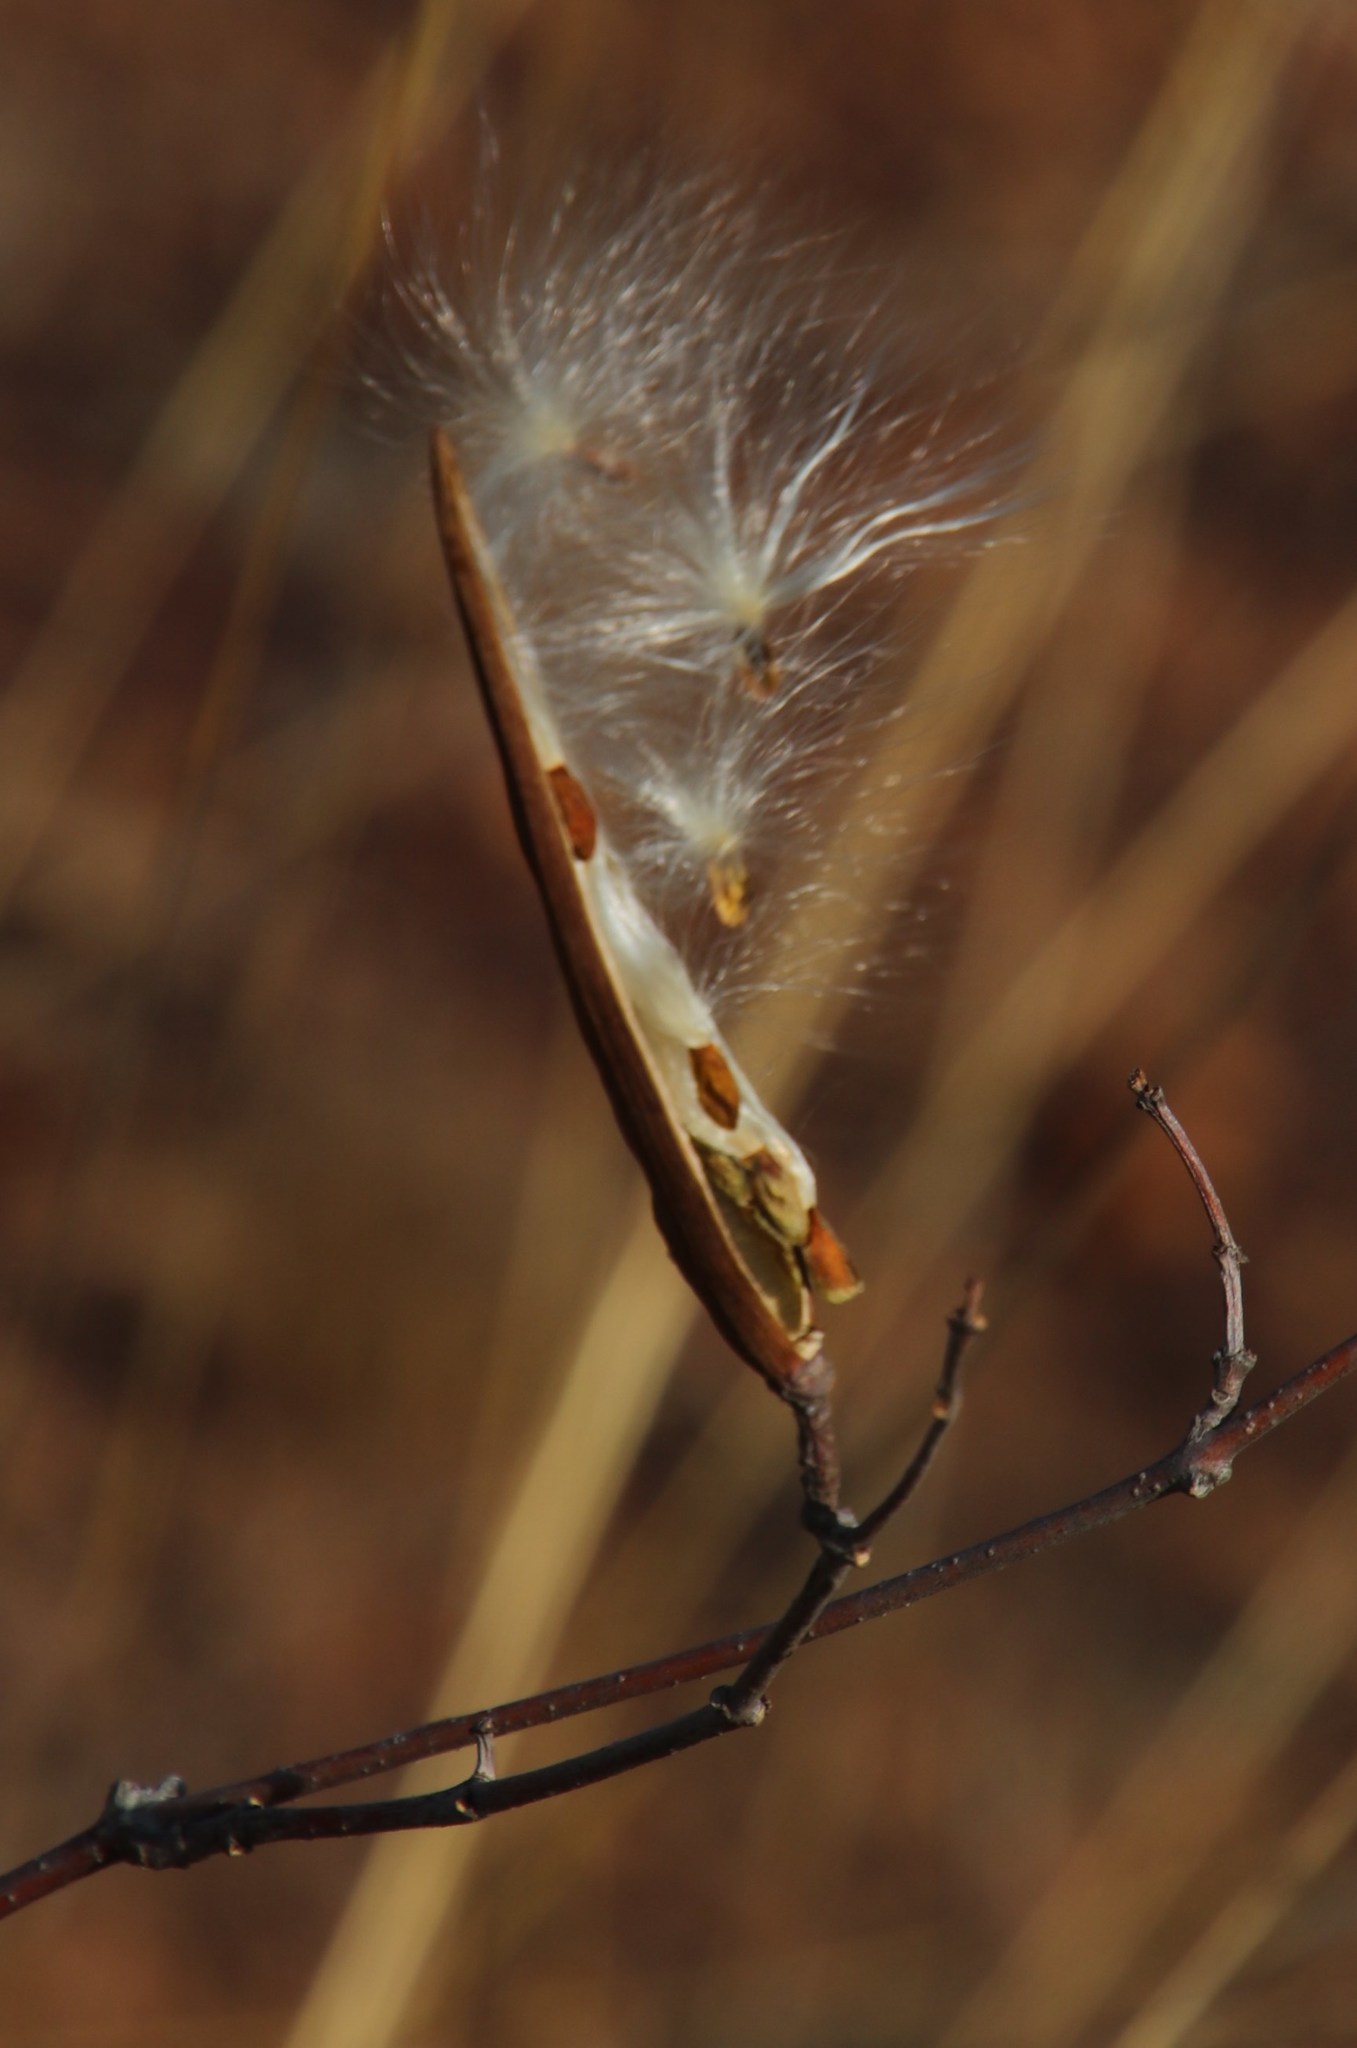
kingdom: Plantae
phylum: Tracheophyta
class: Magnoliopsida
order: Gentianales
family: Apocynaceae
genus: Cryptolepis
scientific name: Cryptolepis oblongifolia
